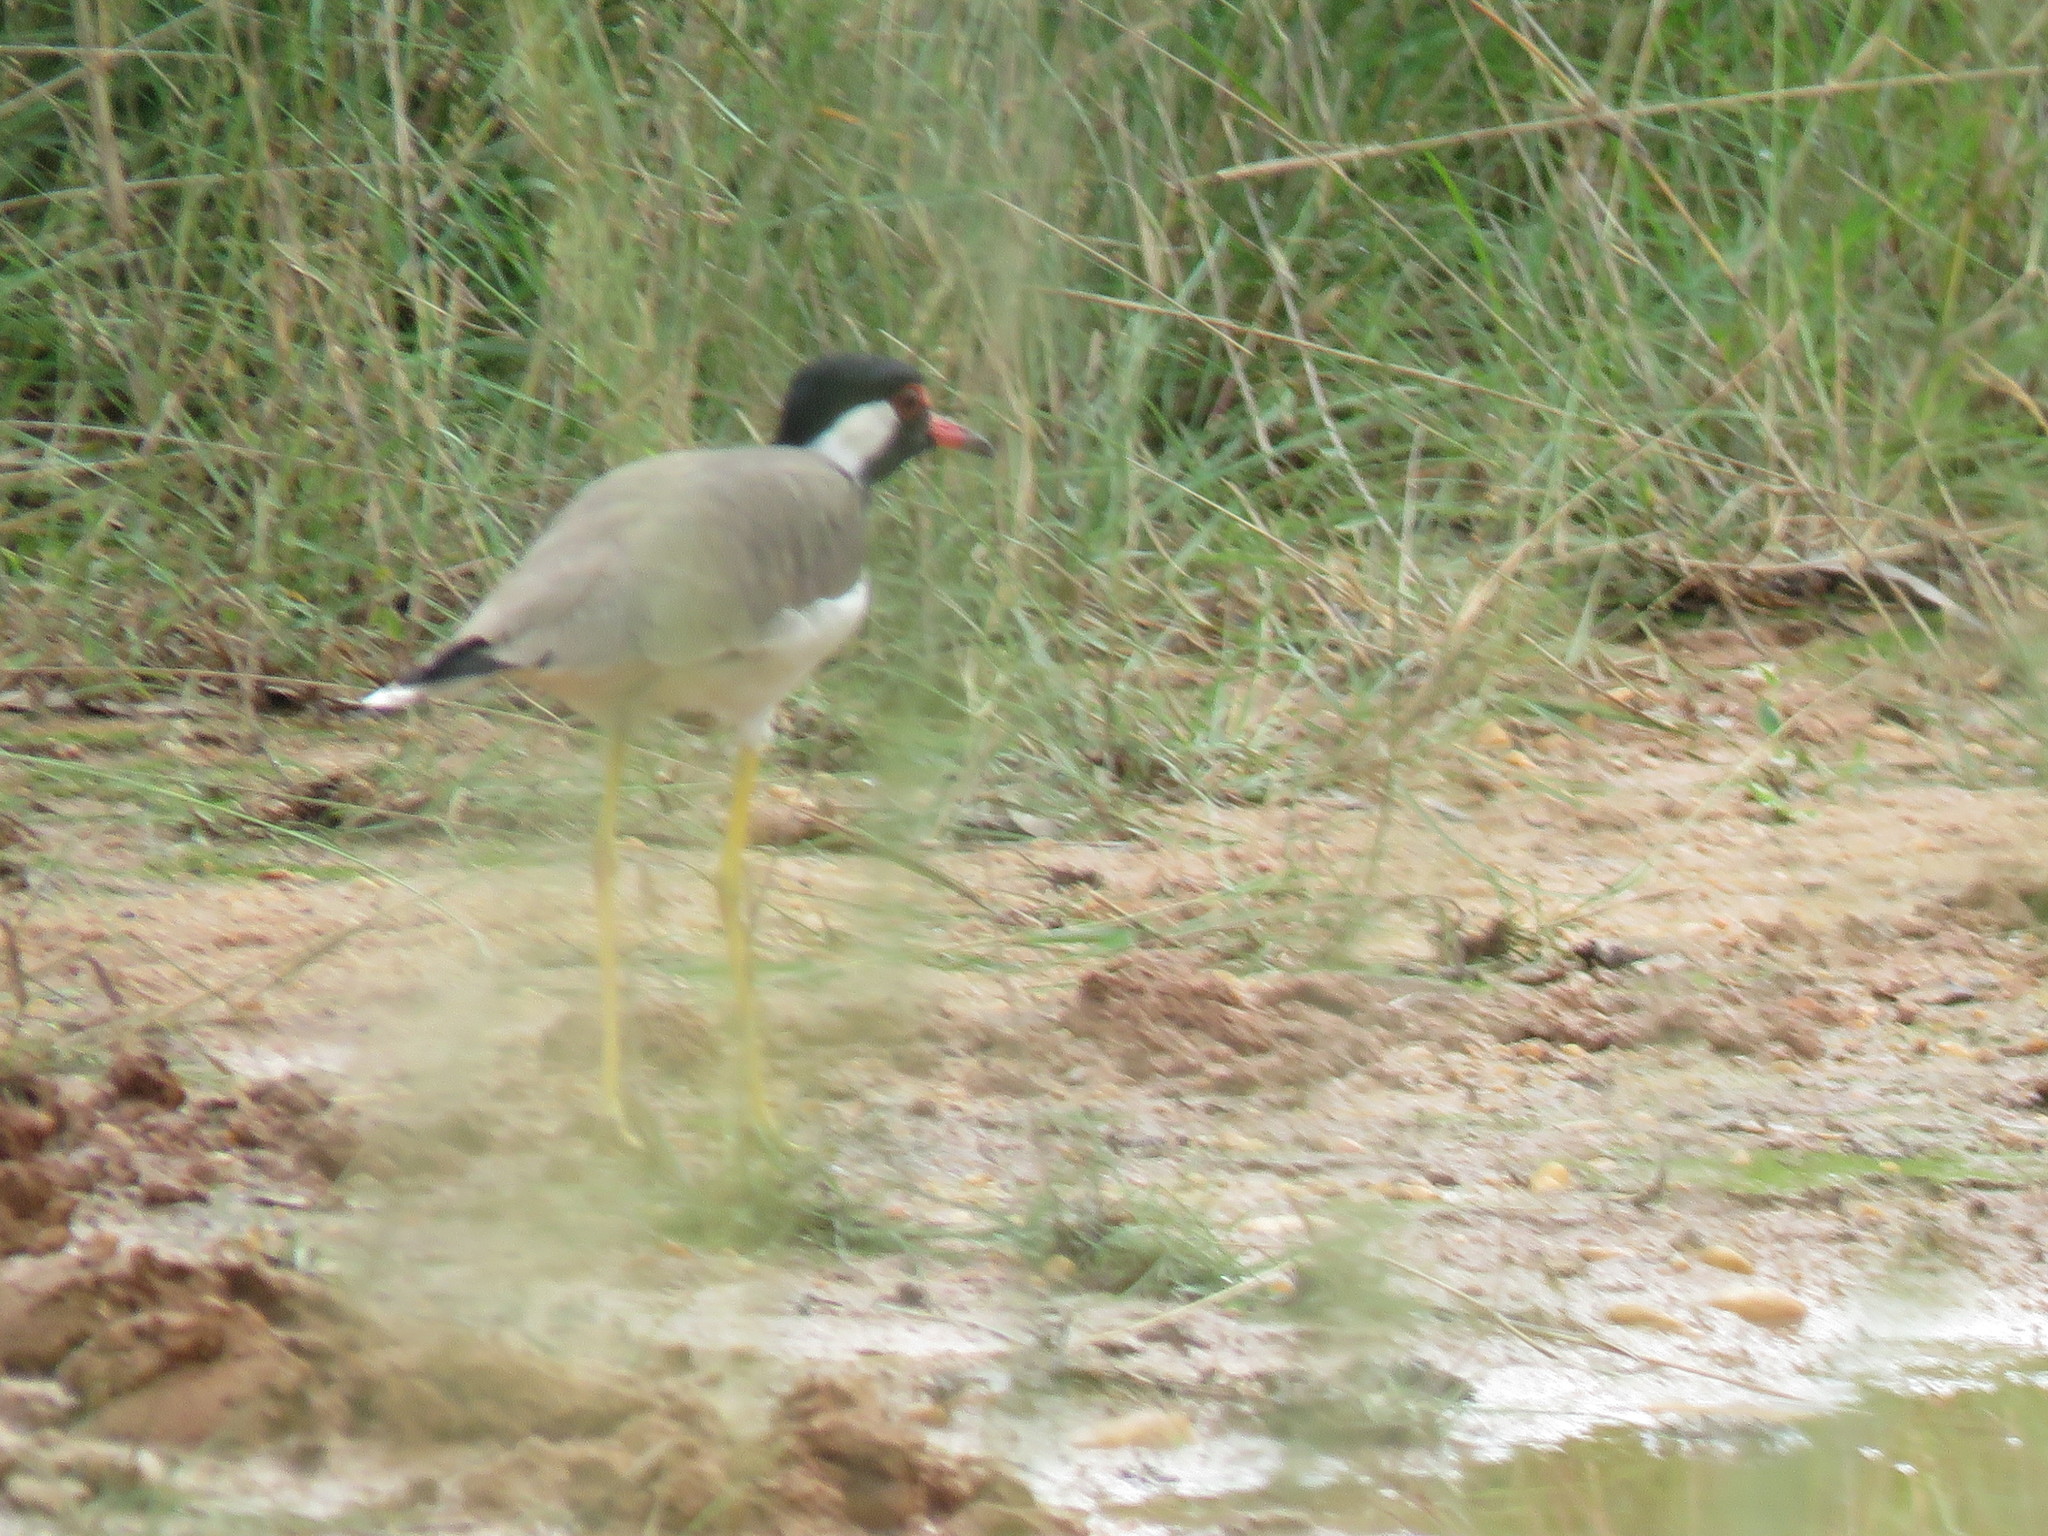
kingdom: Animalia
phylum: Chordata
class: Aves
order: Charadriiformes
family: Charadriidae
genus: Vanellus
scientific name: Vanellus indicus
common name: Red-wattled lapwing
